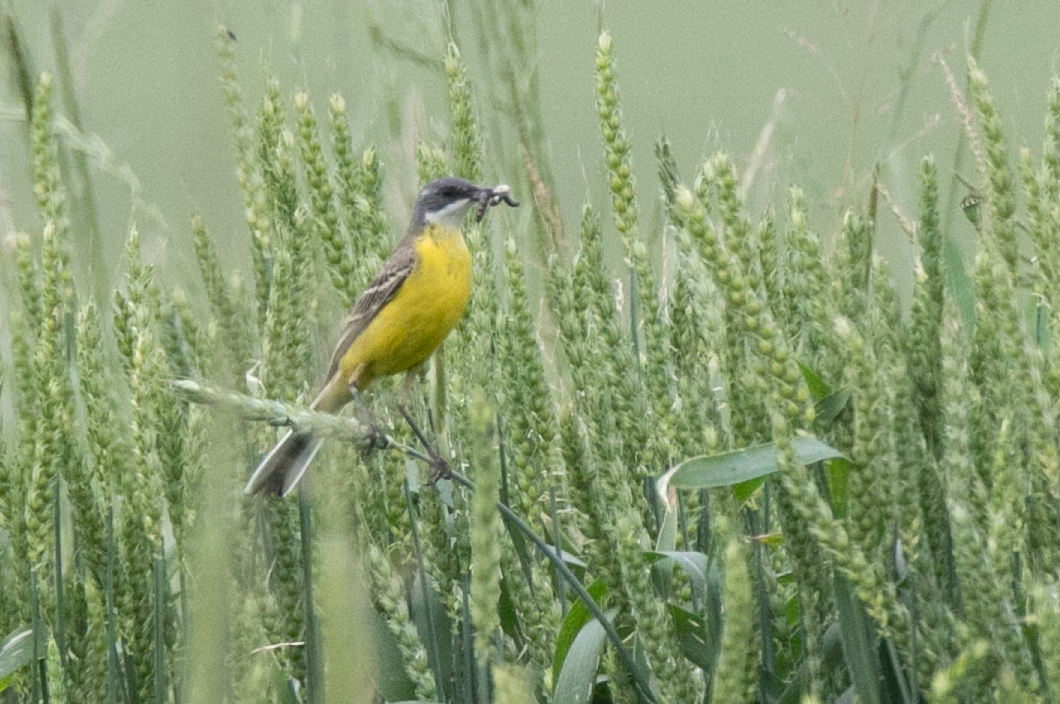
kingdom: Animalia
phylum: Chordata
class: Aves
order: Passeriformes
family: Motacillidae
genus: Motacilla
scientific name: Motacilla flava
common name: Western yellow wagtail
